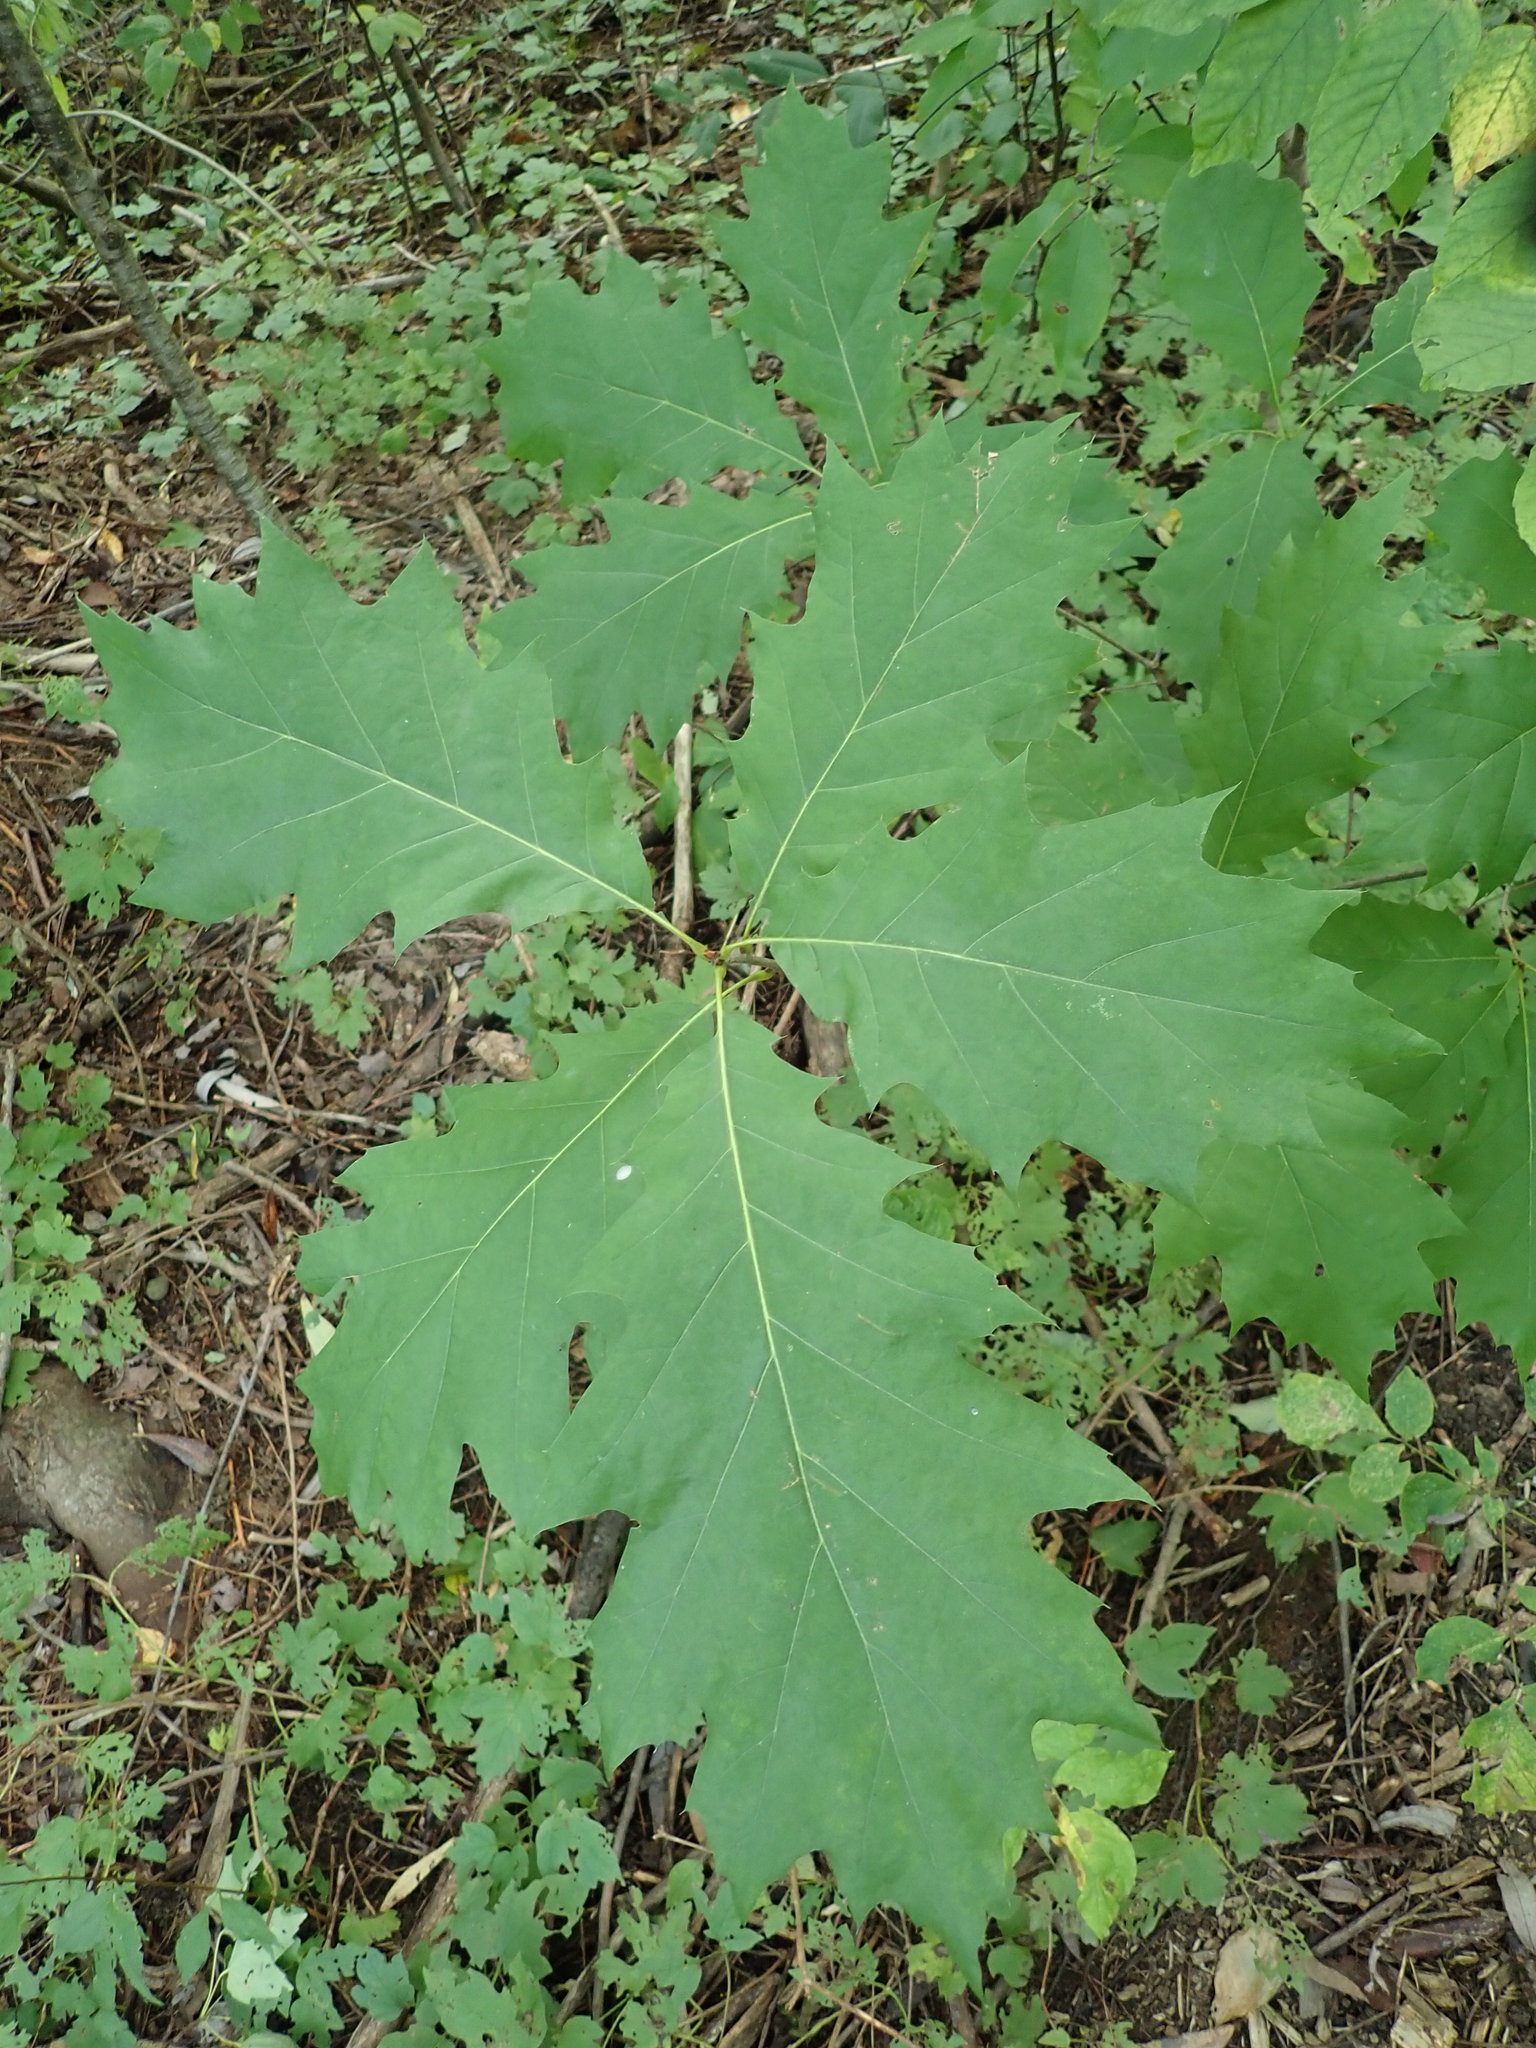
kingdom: Plantae
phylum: Tracheophyta
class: Magnoliopsida
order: Fagales
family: Fagaceae
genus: Quercus
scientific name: Quercus rubra
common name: Red oak
